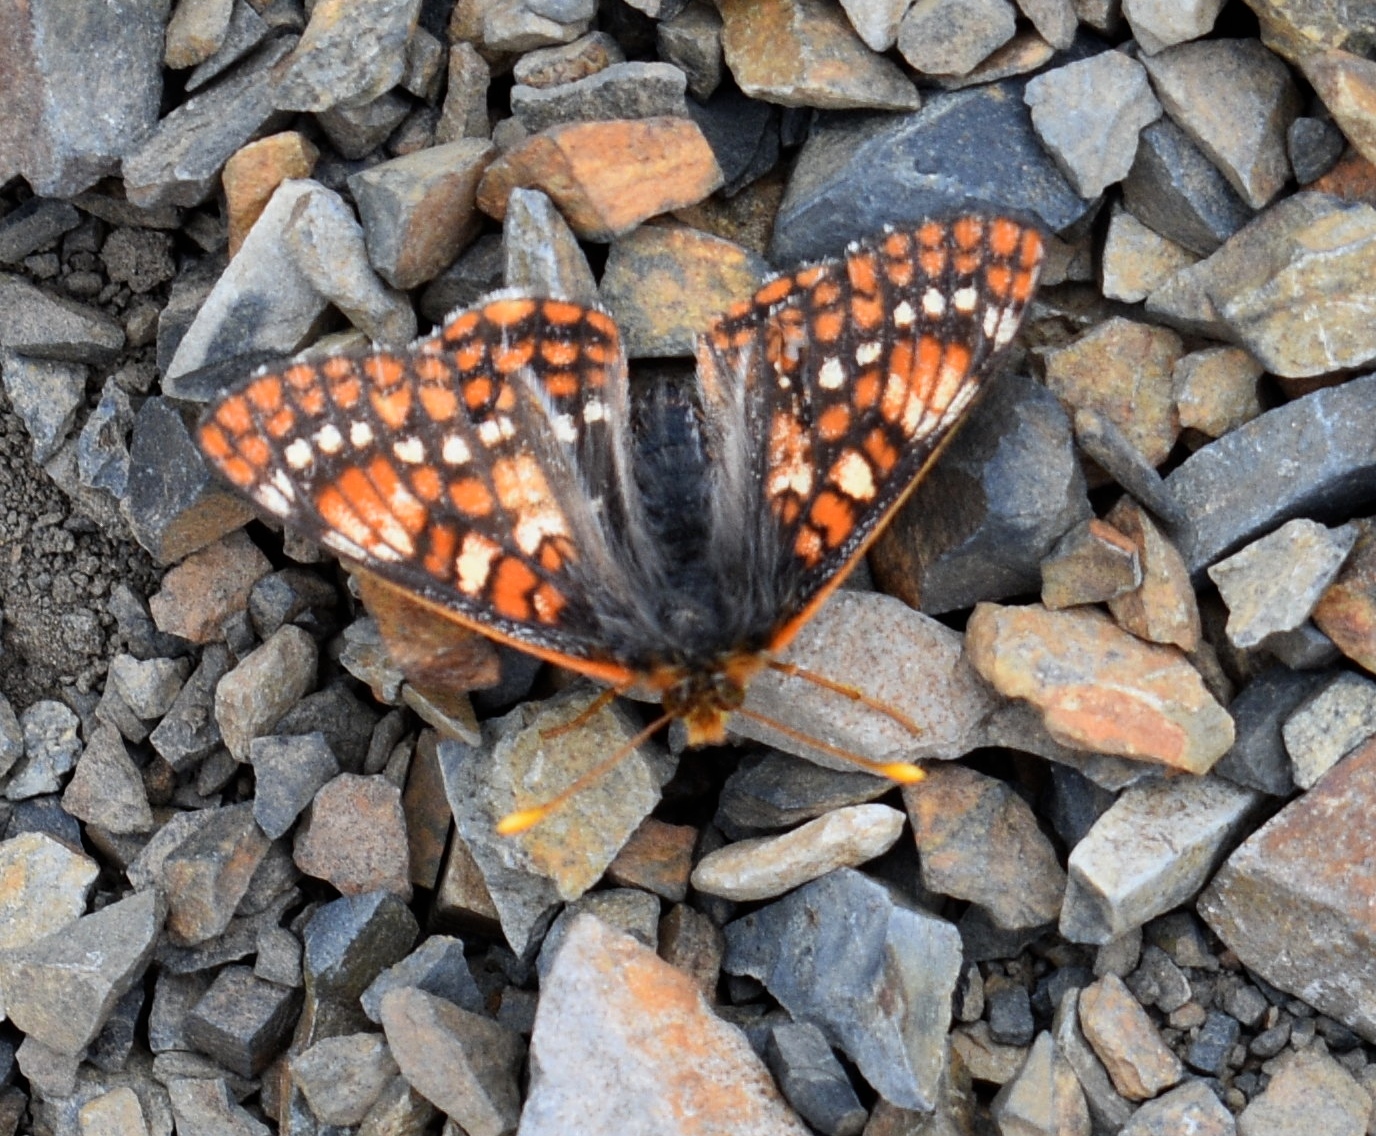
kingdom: Animalia
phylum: Arthropoda
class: Insecta
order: Lepidoptera
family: Nymphalidae
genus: Occidryas
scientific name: Occidryas anicia
